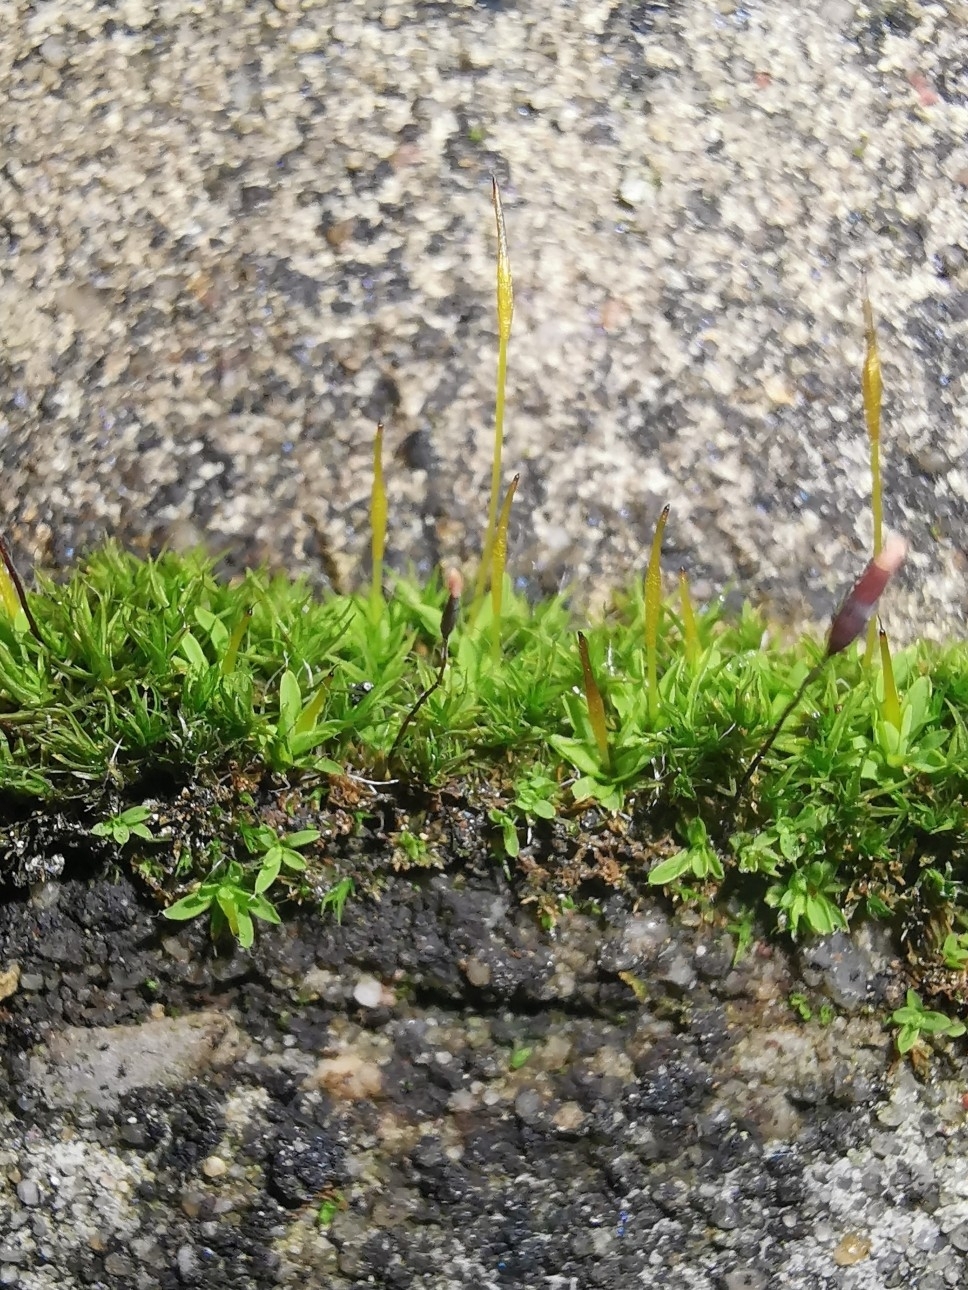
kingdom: Plantae
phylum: Bryophyta
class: Bryopsida
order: Pottiales
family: Pottiaceae
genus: Tortula
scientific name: Tortula muralis
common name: Wall screw-moss
